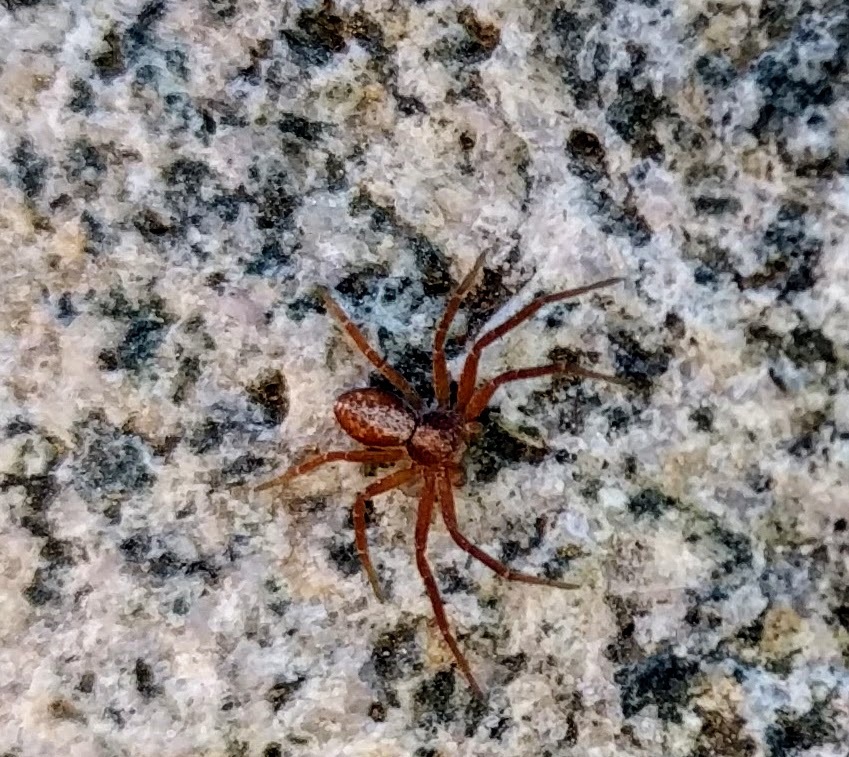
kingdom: Animalia
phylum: Arthropoda
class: Arachnida
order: Araneae
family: Philodromidae
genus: Philodromus
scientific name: Philodromus rufus
